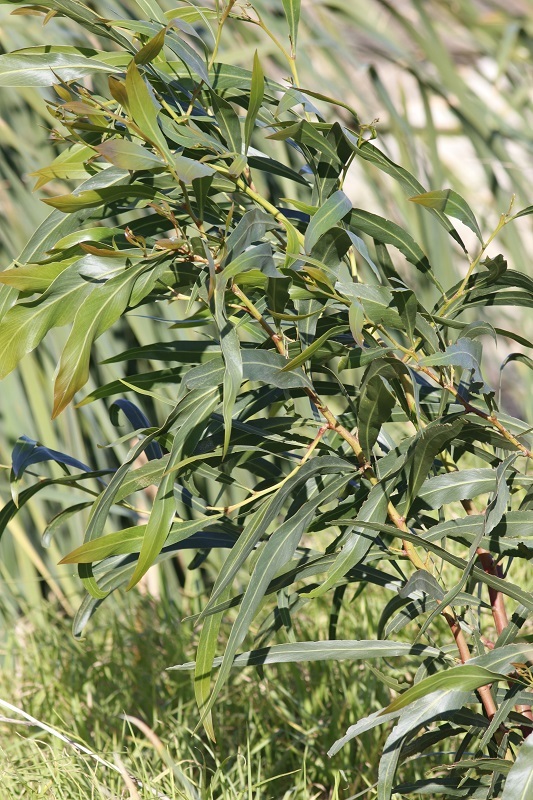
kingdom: Plantae
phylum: Tracheophyta
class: Magnoliopsida
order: Fabales
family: Fabaceae
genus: Acacia
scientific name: Acacia saligna
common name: Orange wattle
